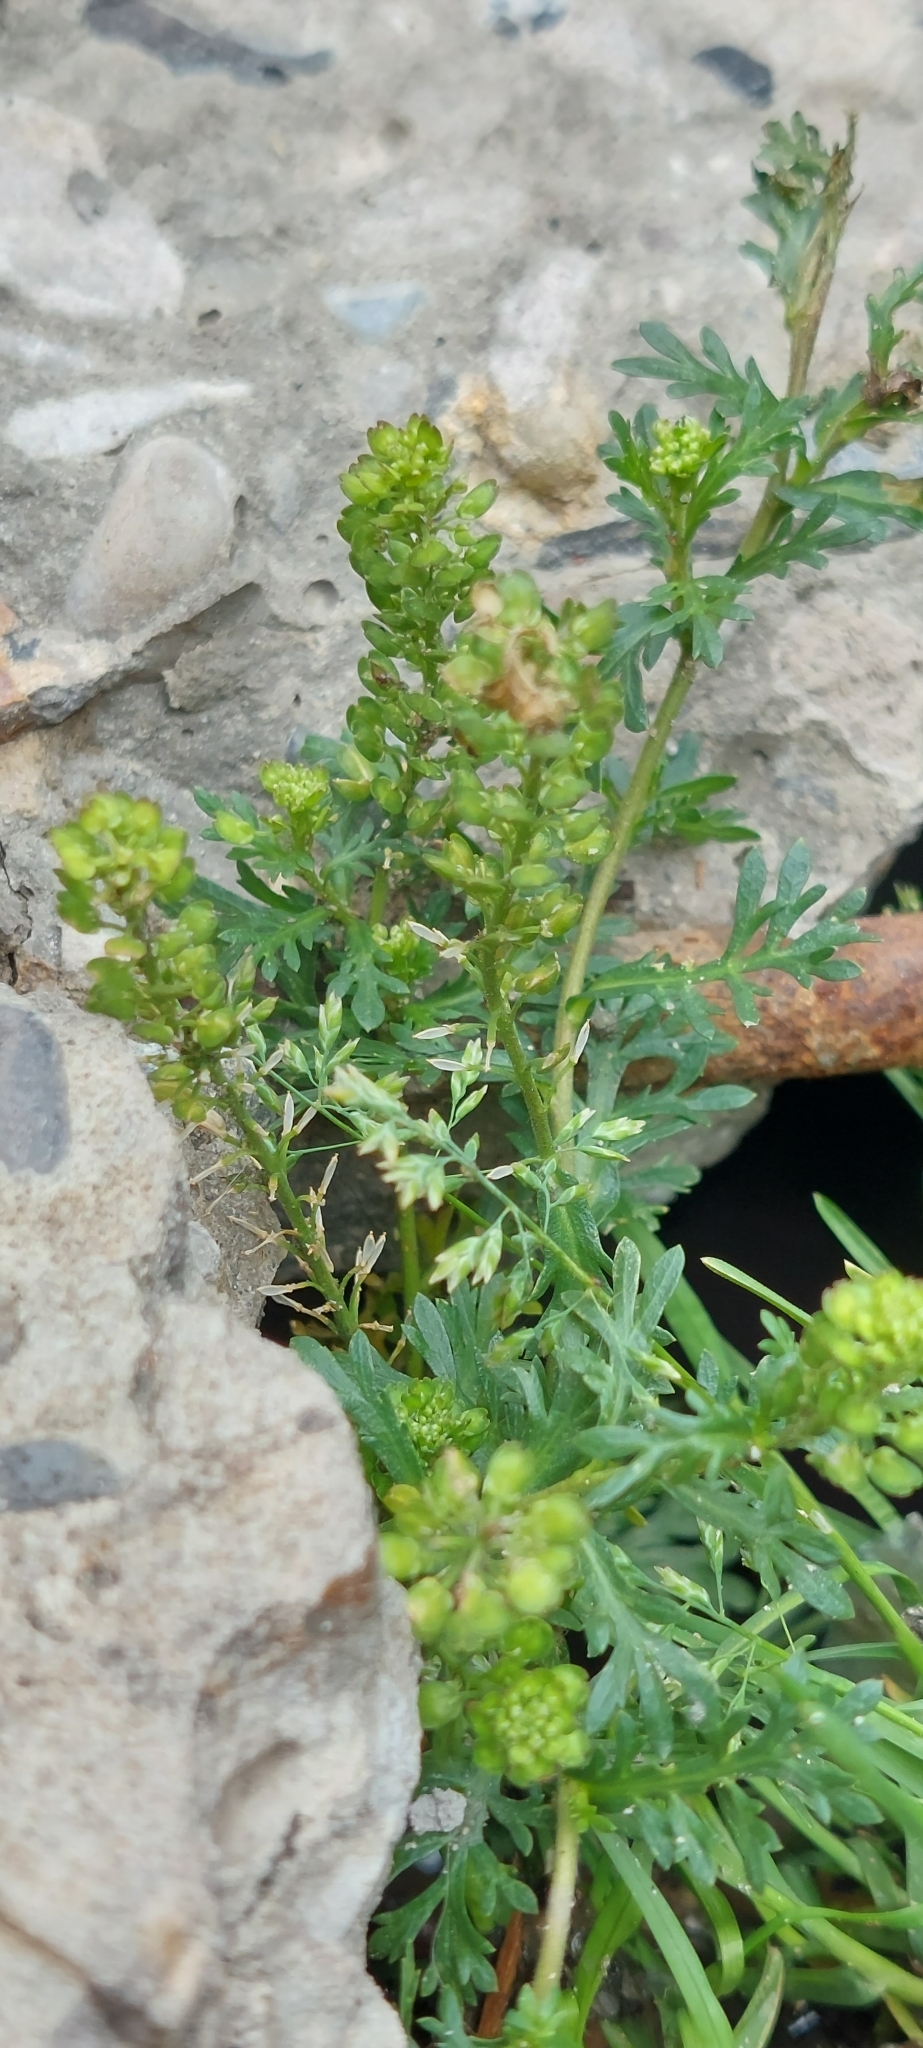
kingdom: Plantae
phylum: Tracheophyta
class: Magnoliopsida
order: Brassicales
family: Brassicaceae
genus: Lepidium
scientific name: Lepidium bipinnatifidum
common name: Wayside pepperwort
